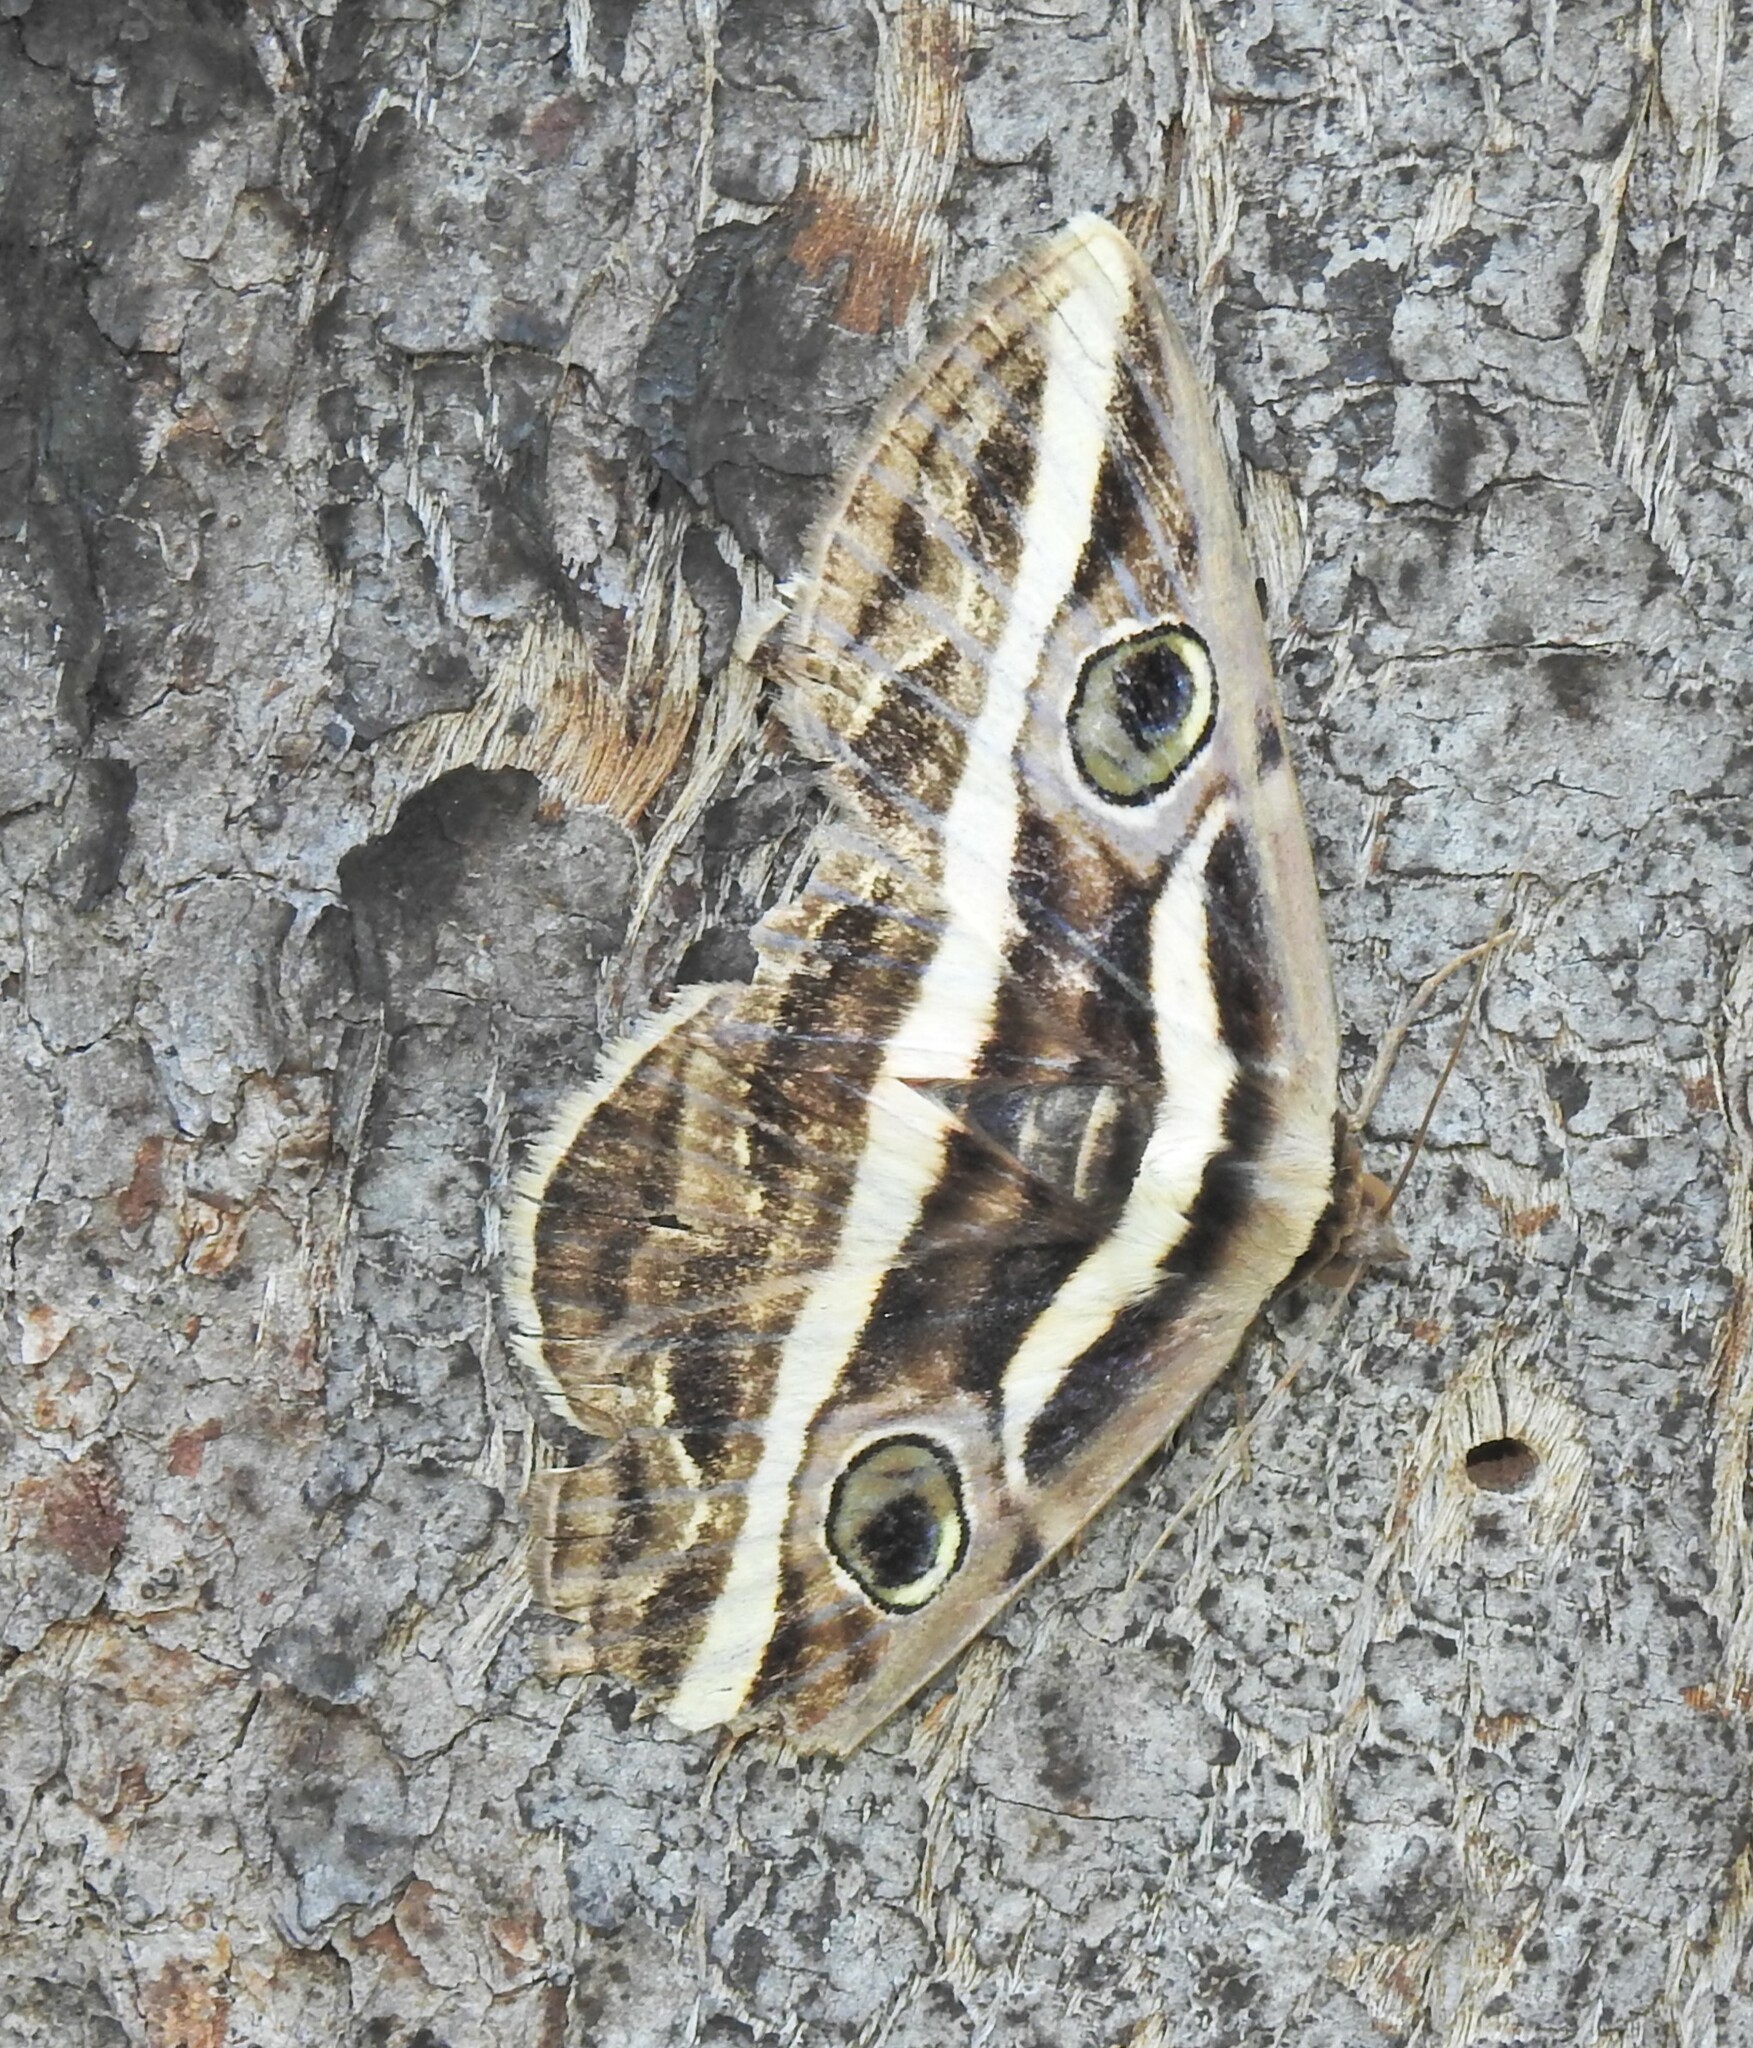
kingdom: Animalia
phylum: Arthropoda
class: Insecta
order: Lepidoptera
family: Erebidae
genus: Donuca
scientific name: Donuca rubropicta
